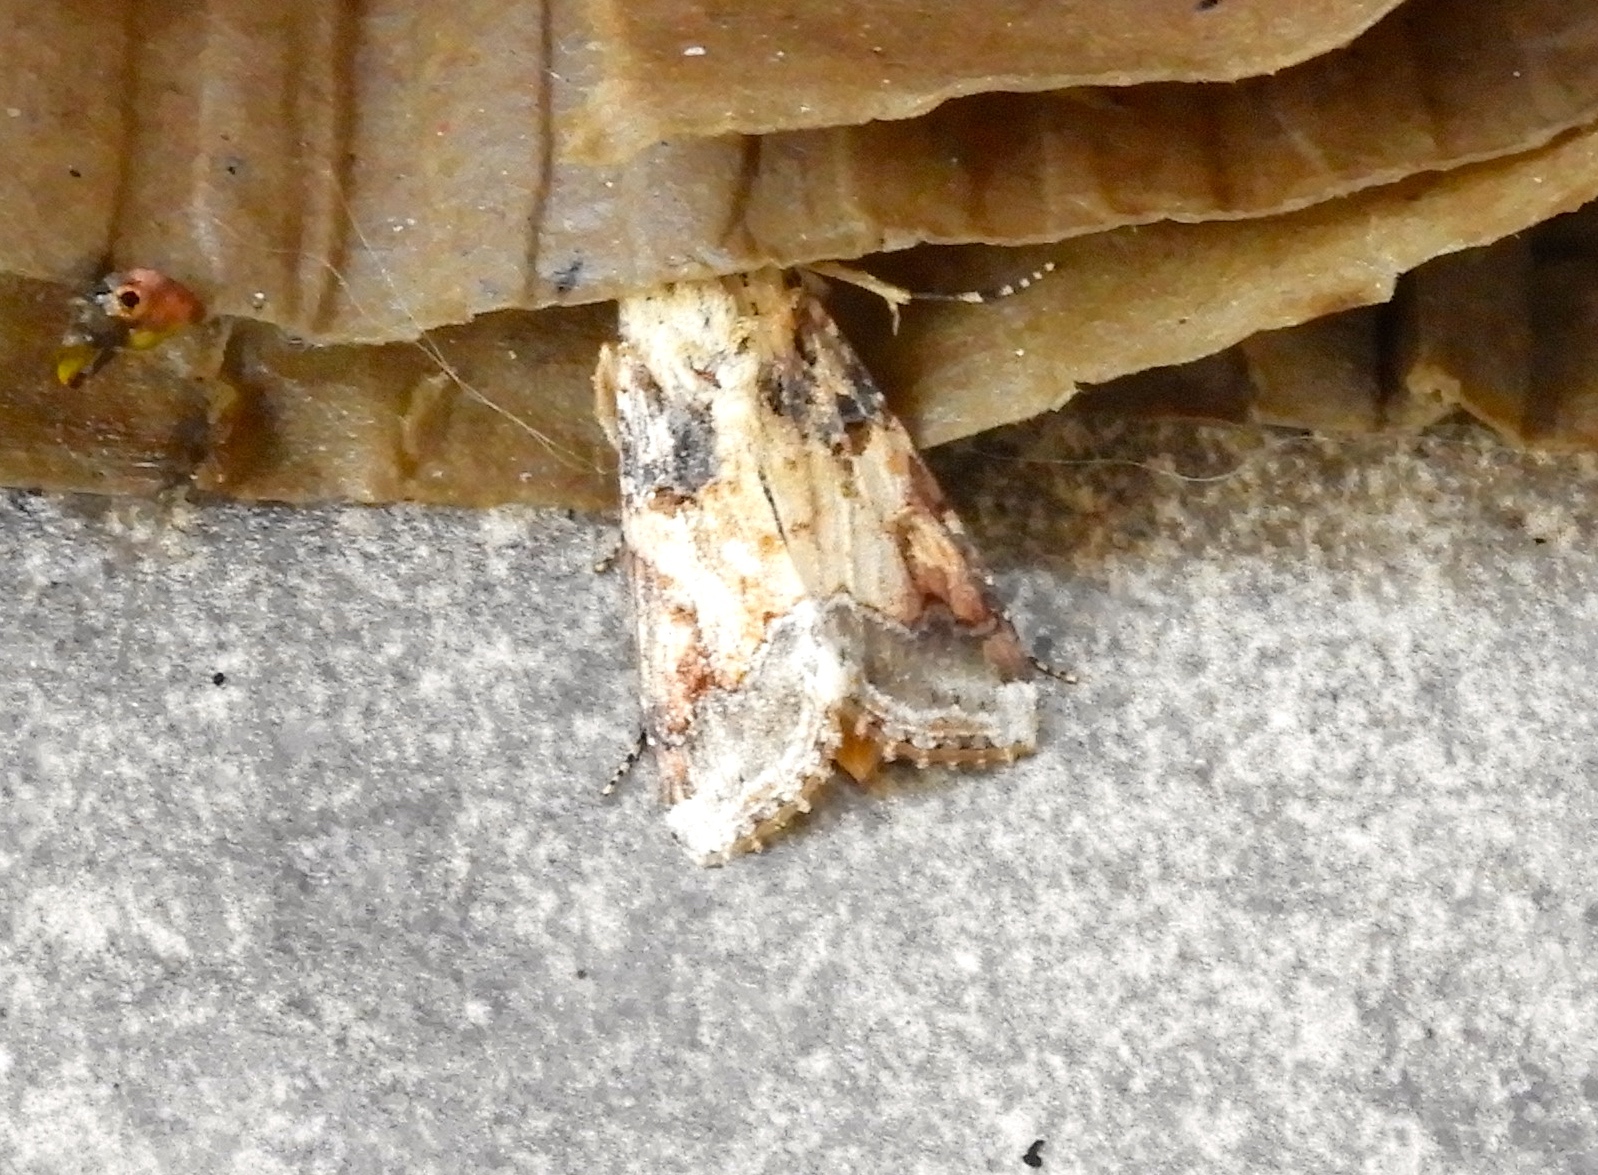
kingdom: Animalia
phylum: Arthropoda
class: Insecta
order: Lepidoptera
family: Noctuidae
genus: Spodoptera
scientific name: Spodoptera latifascia
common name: Velvet armyworm moth
